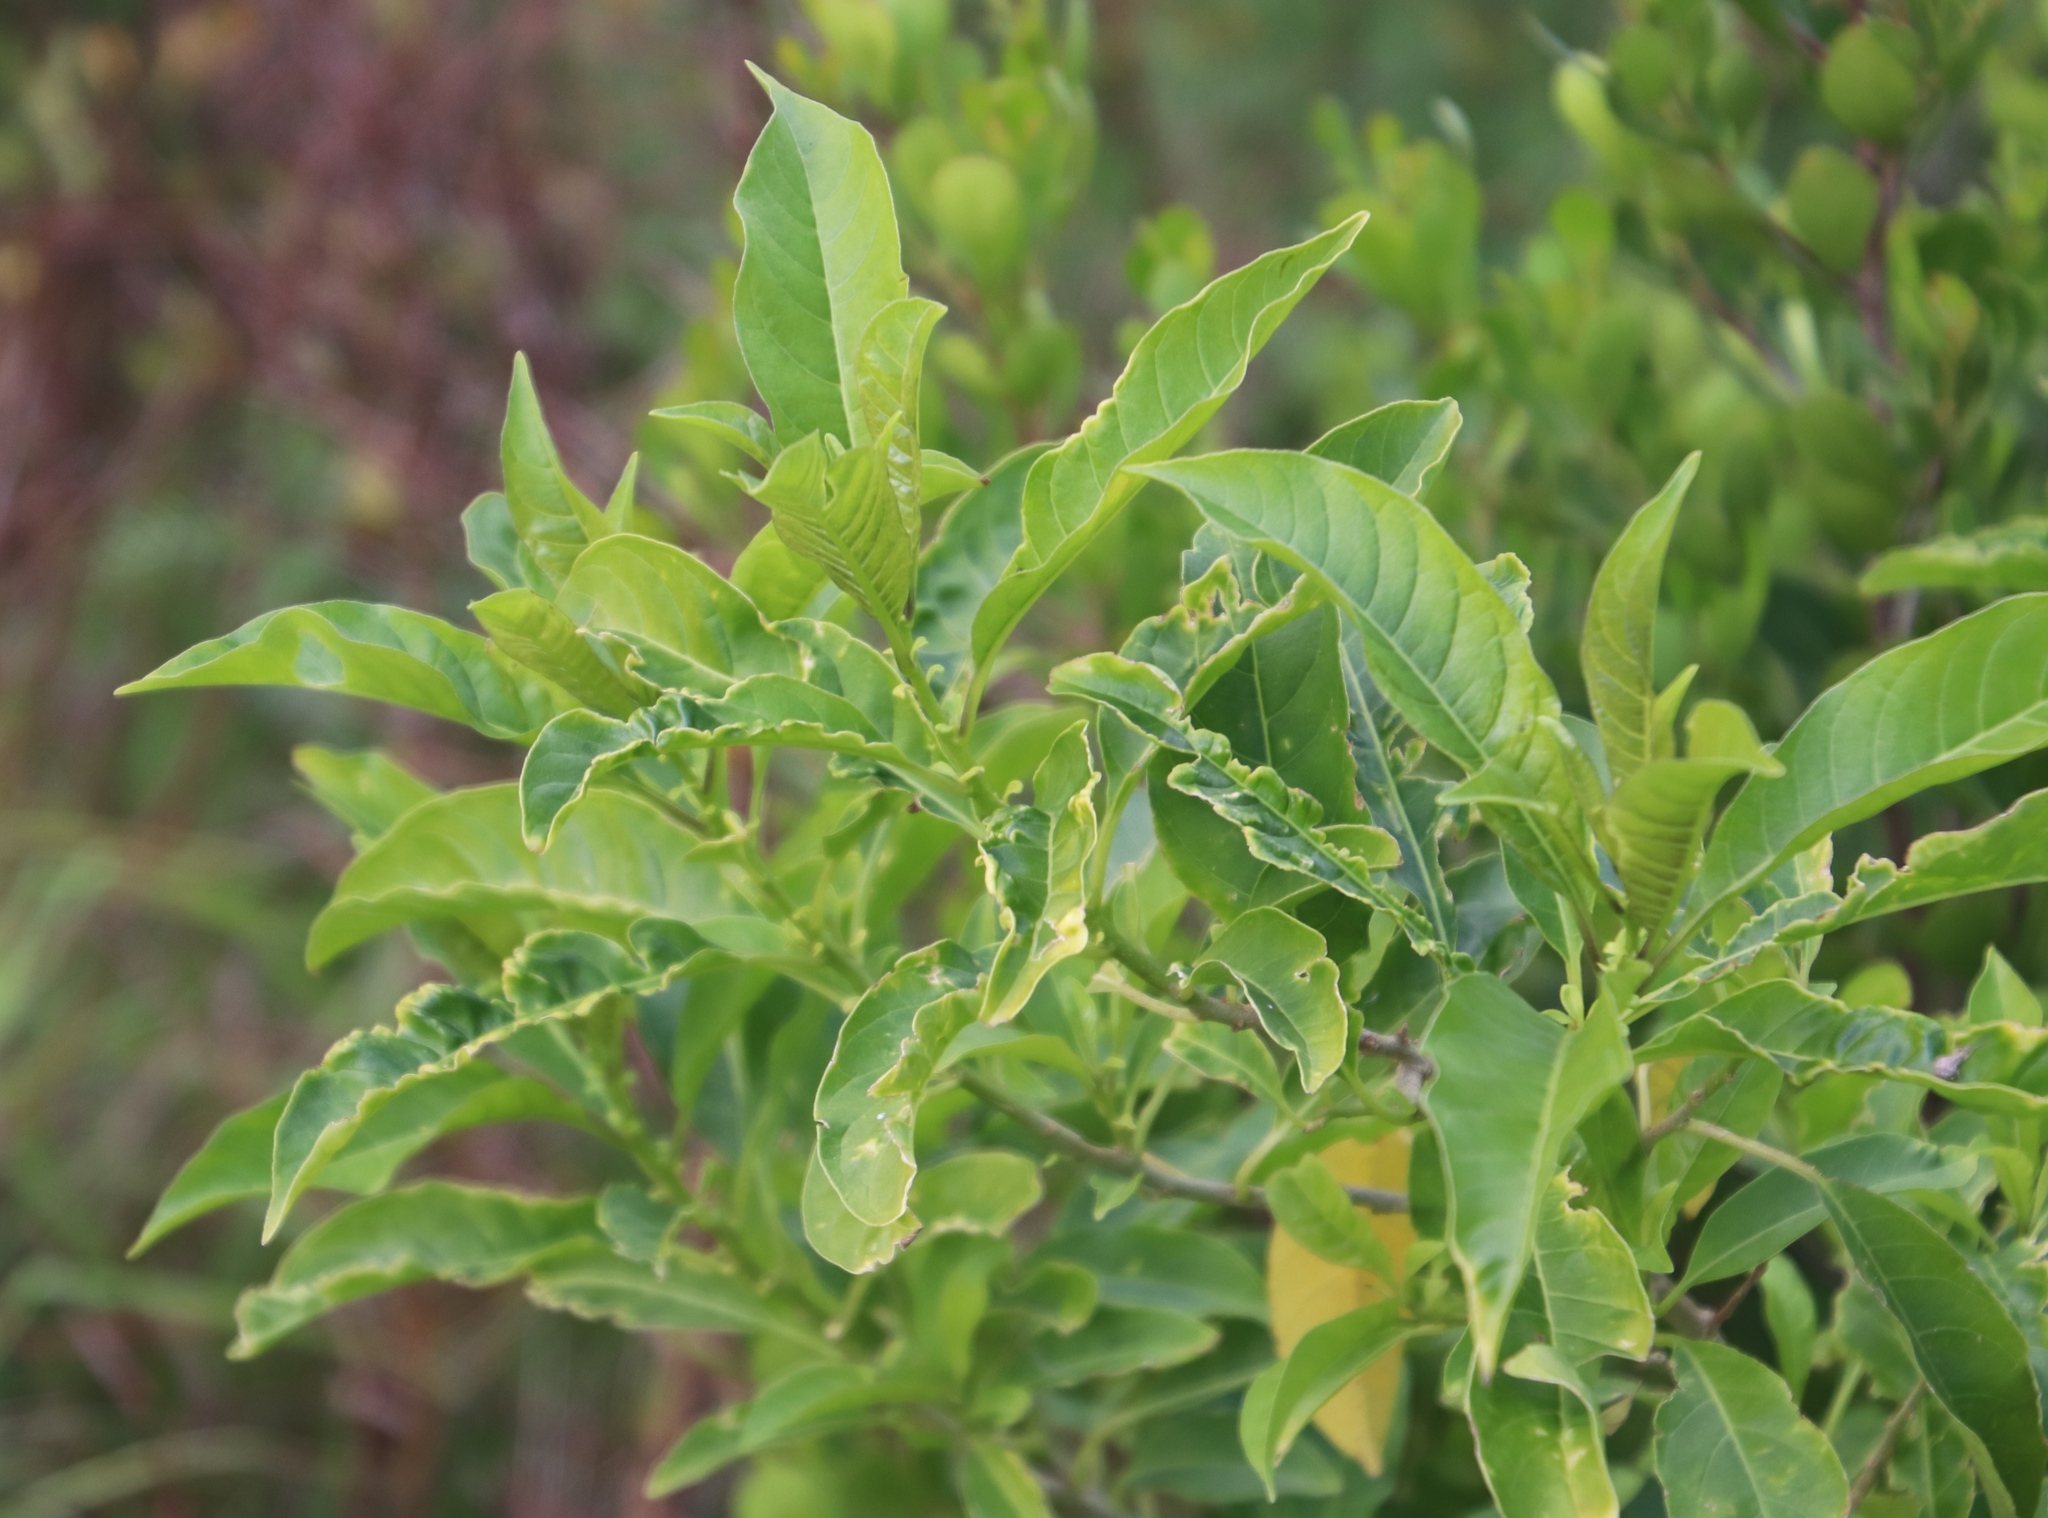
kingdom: Plantae
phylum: Tracheophyta
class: Magnoliopsida
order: Solanales
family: Solanaceae
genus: Cestrum
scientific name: Cestrum laevigatum
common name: Inkberry
